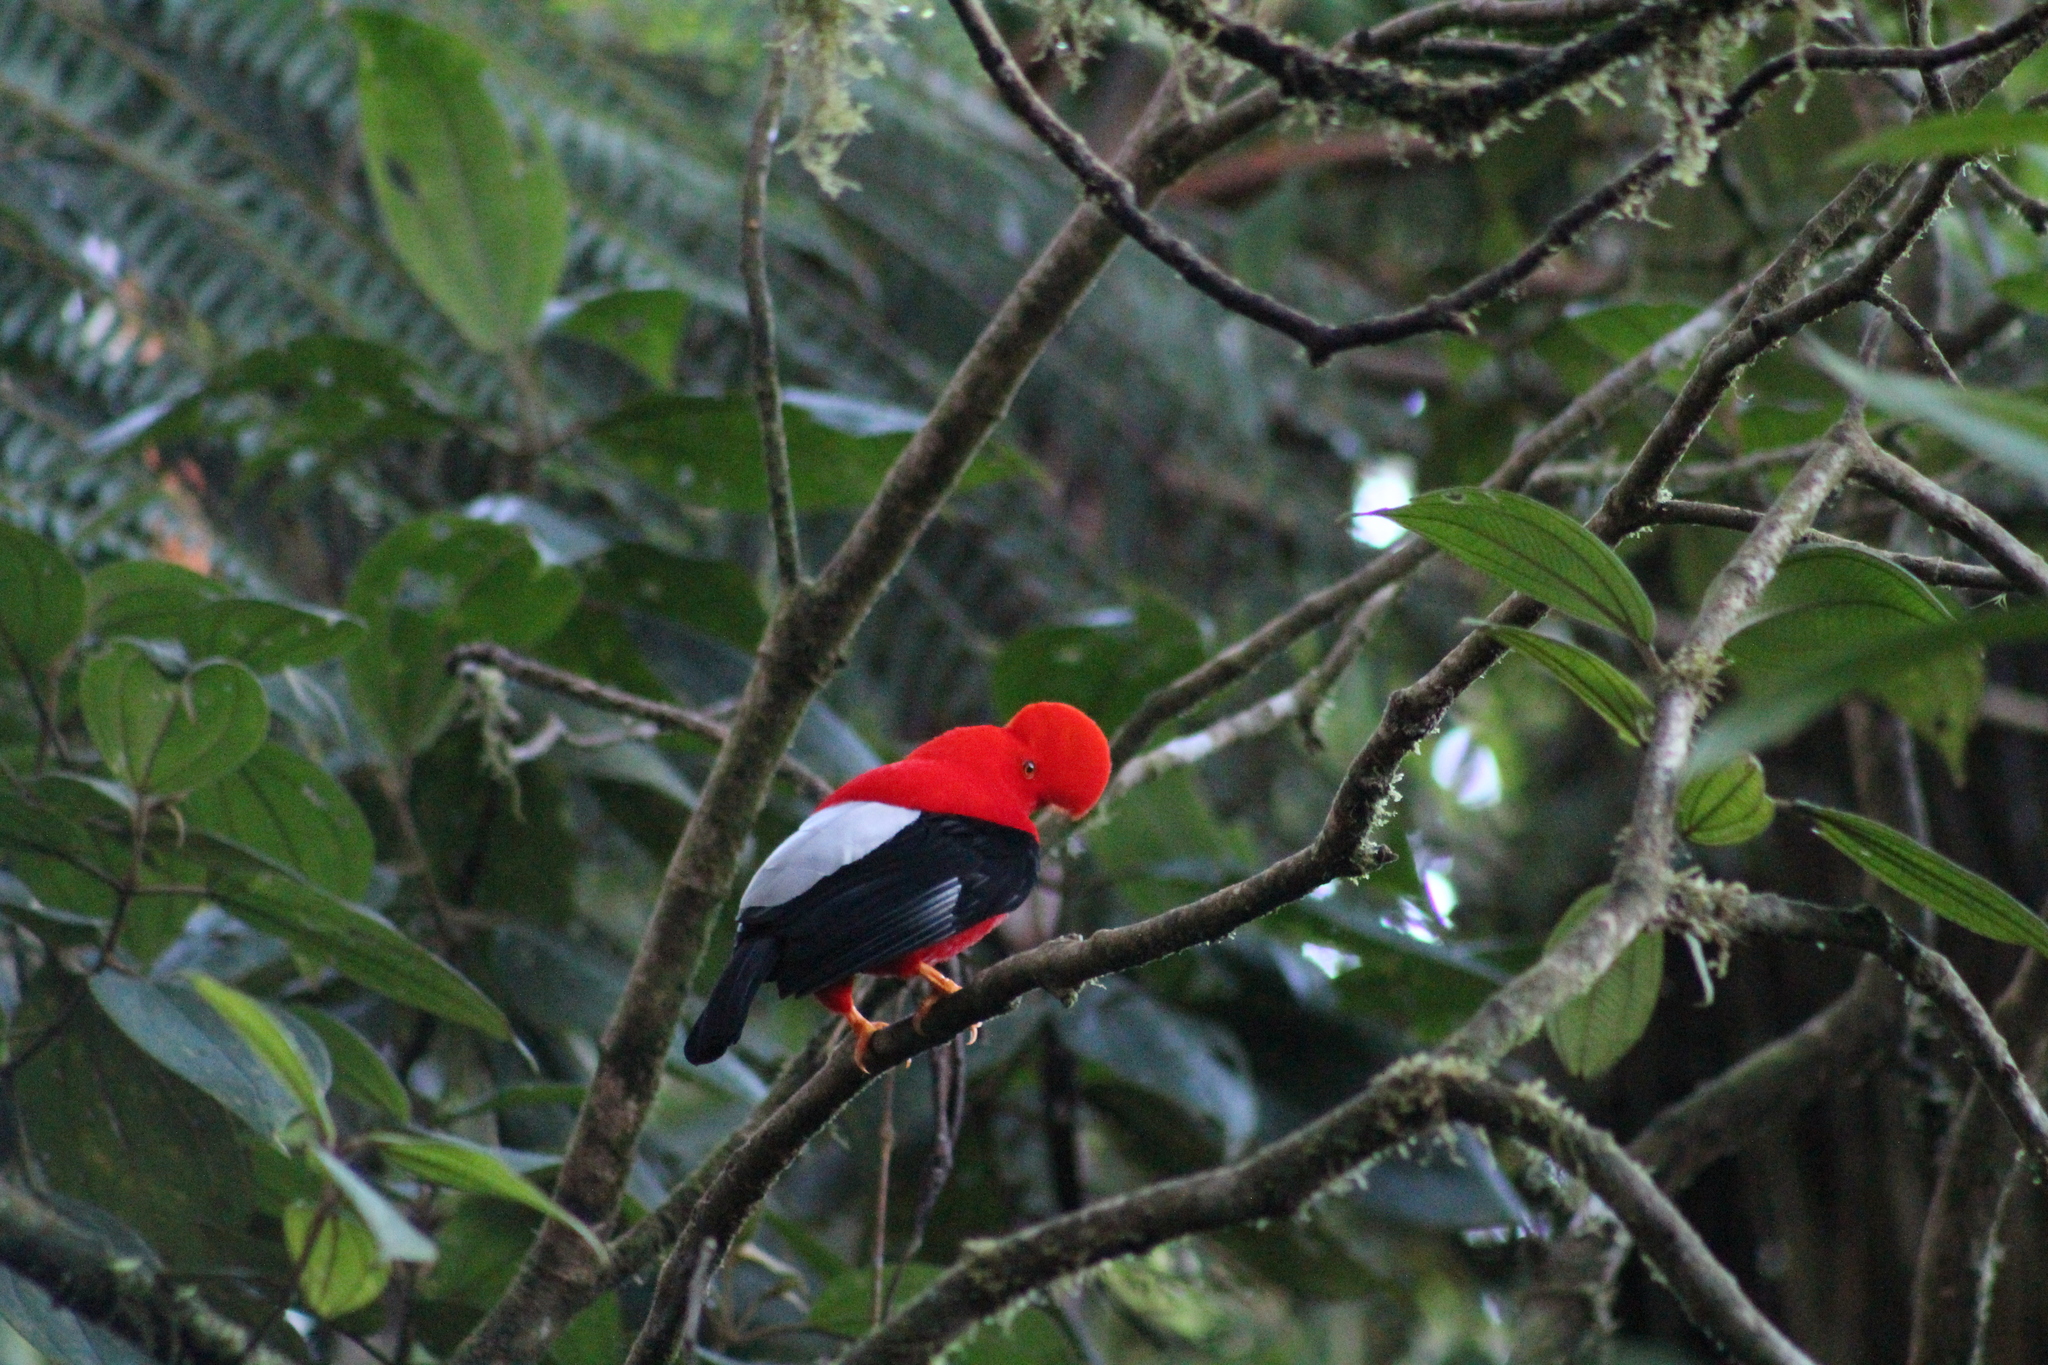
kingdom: Animalia
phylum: Chordata
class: Aves
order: Passeriformes
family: Cotingidae
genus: Rupicola
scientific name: Rupicola peruvianus
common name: Andean cock-of-the-rock
